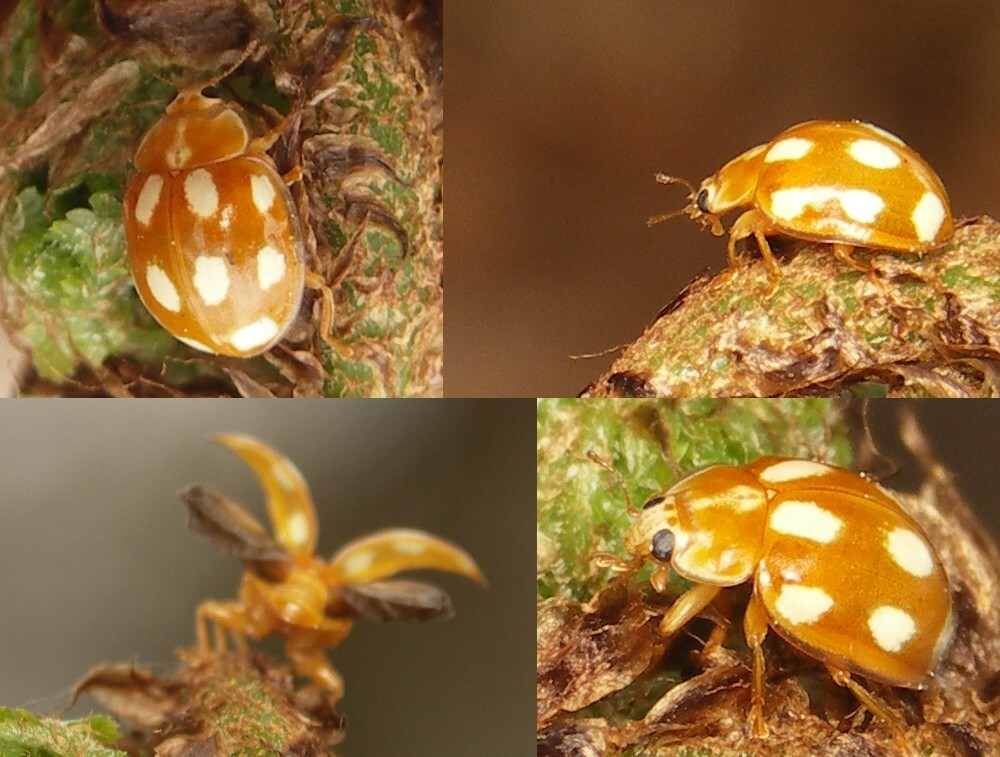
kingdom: Animalia
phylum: Arthropoda
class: Insecta
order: Coleoptera
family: Coccinellidae
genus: Calvia
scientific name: Calvia decemguttata
